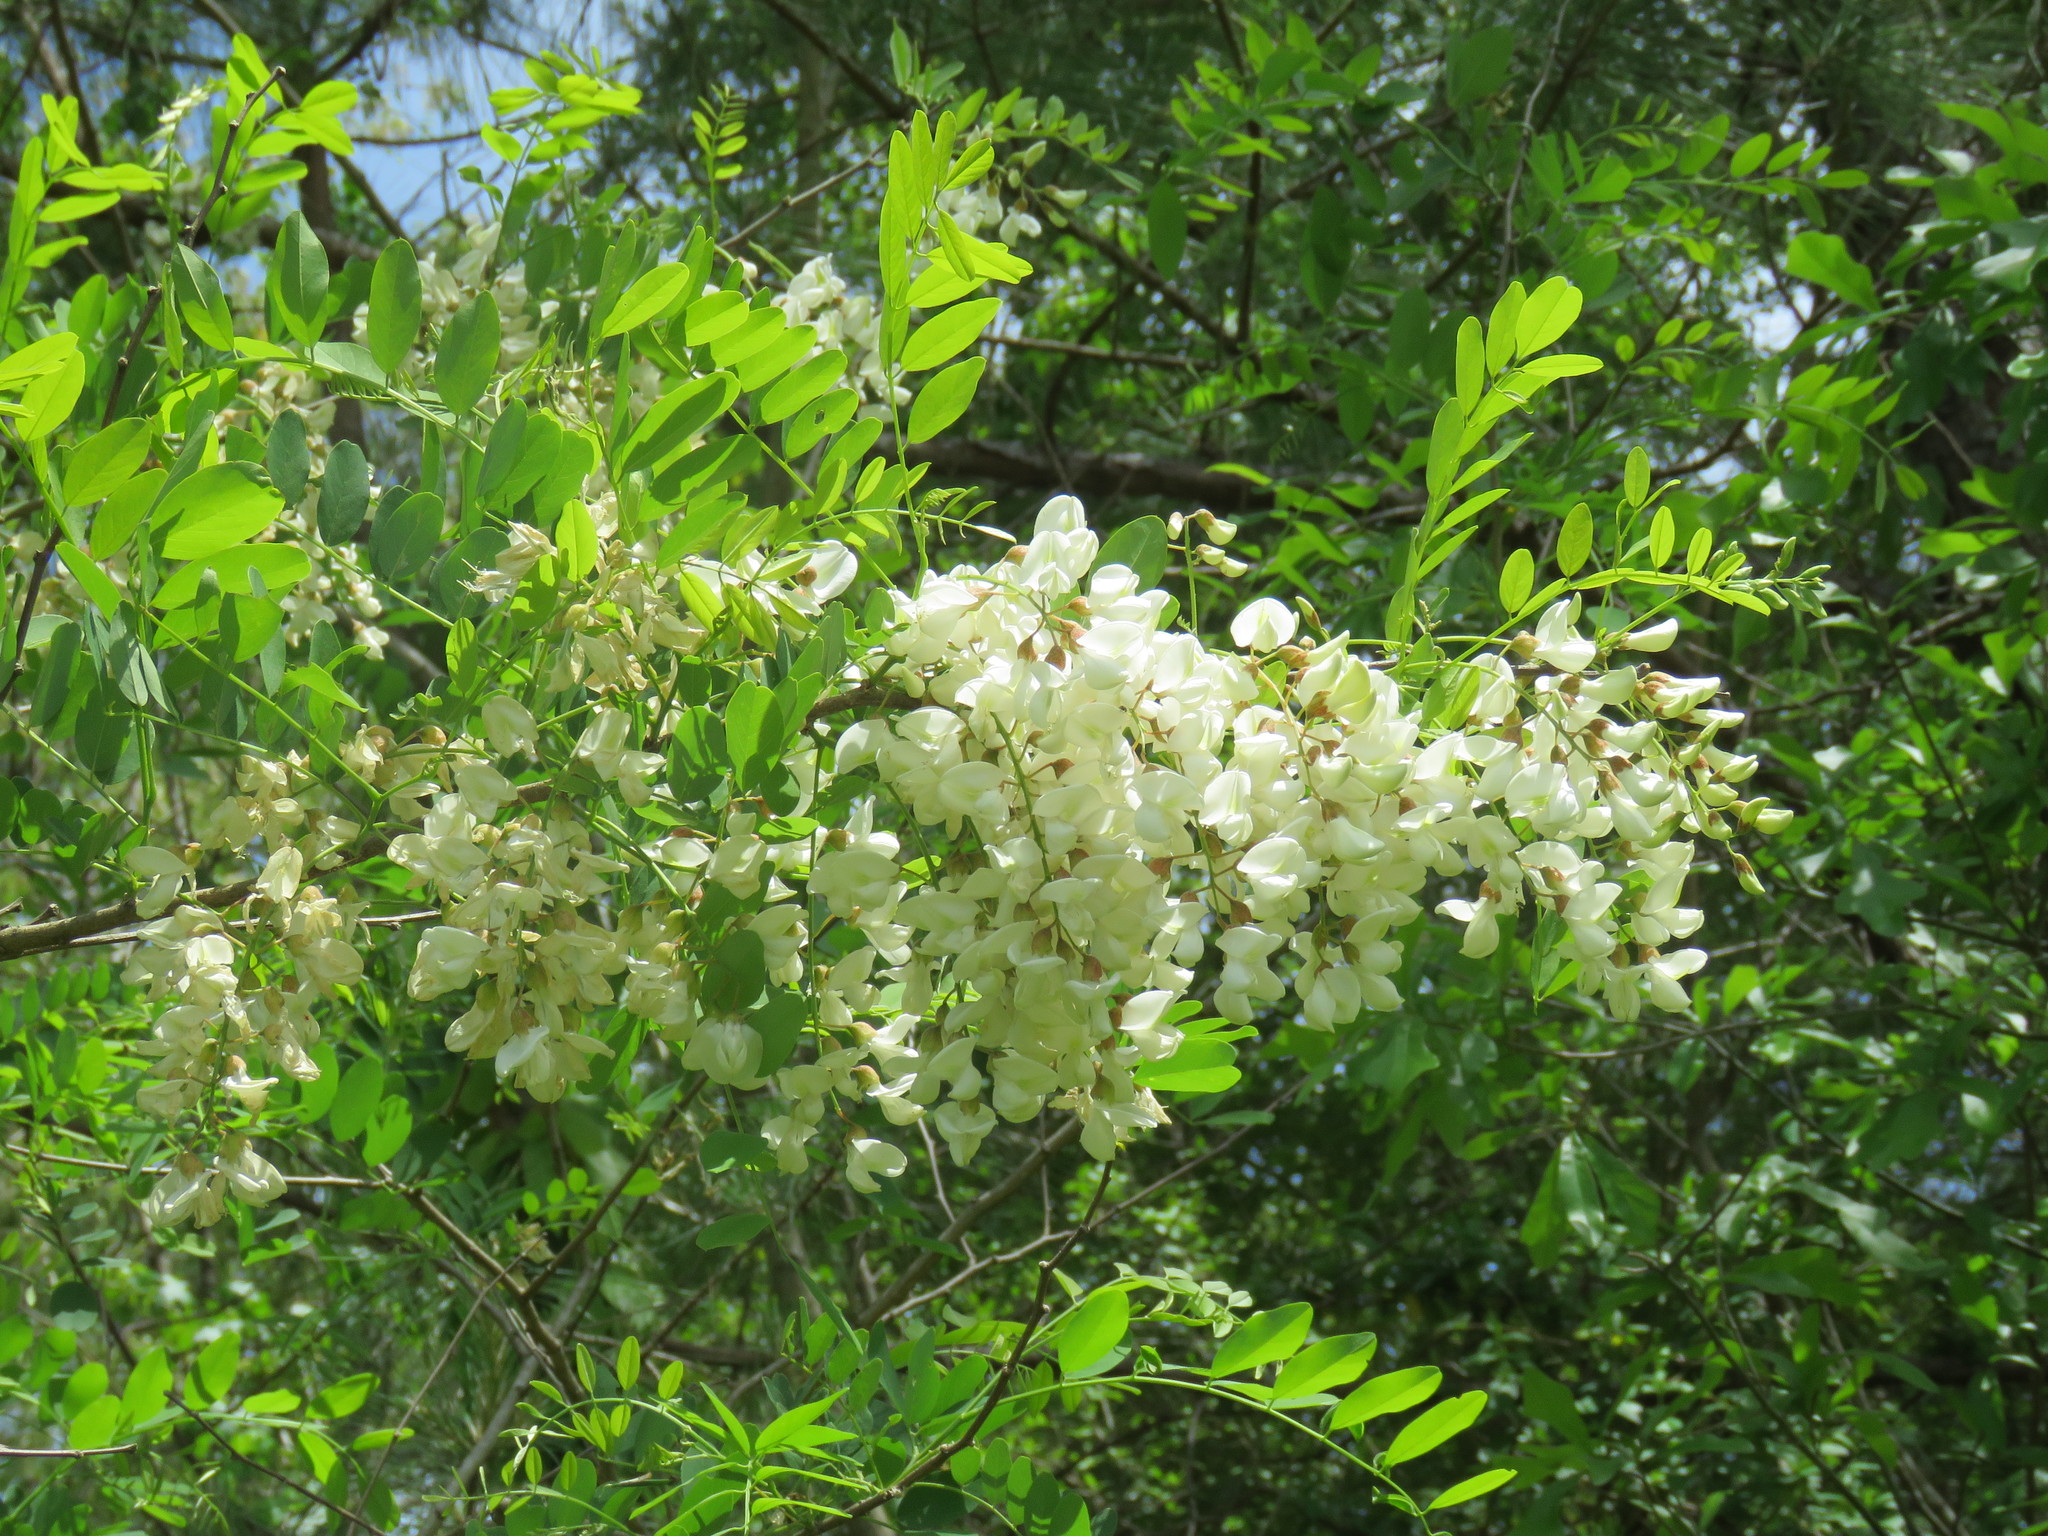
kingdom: Plantae
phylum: Tracheophyta
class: Magnoliopsida
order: Fabales
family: Fabaceae
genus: Robinia
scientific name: Robinia pseudoacacia
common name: Black locust
